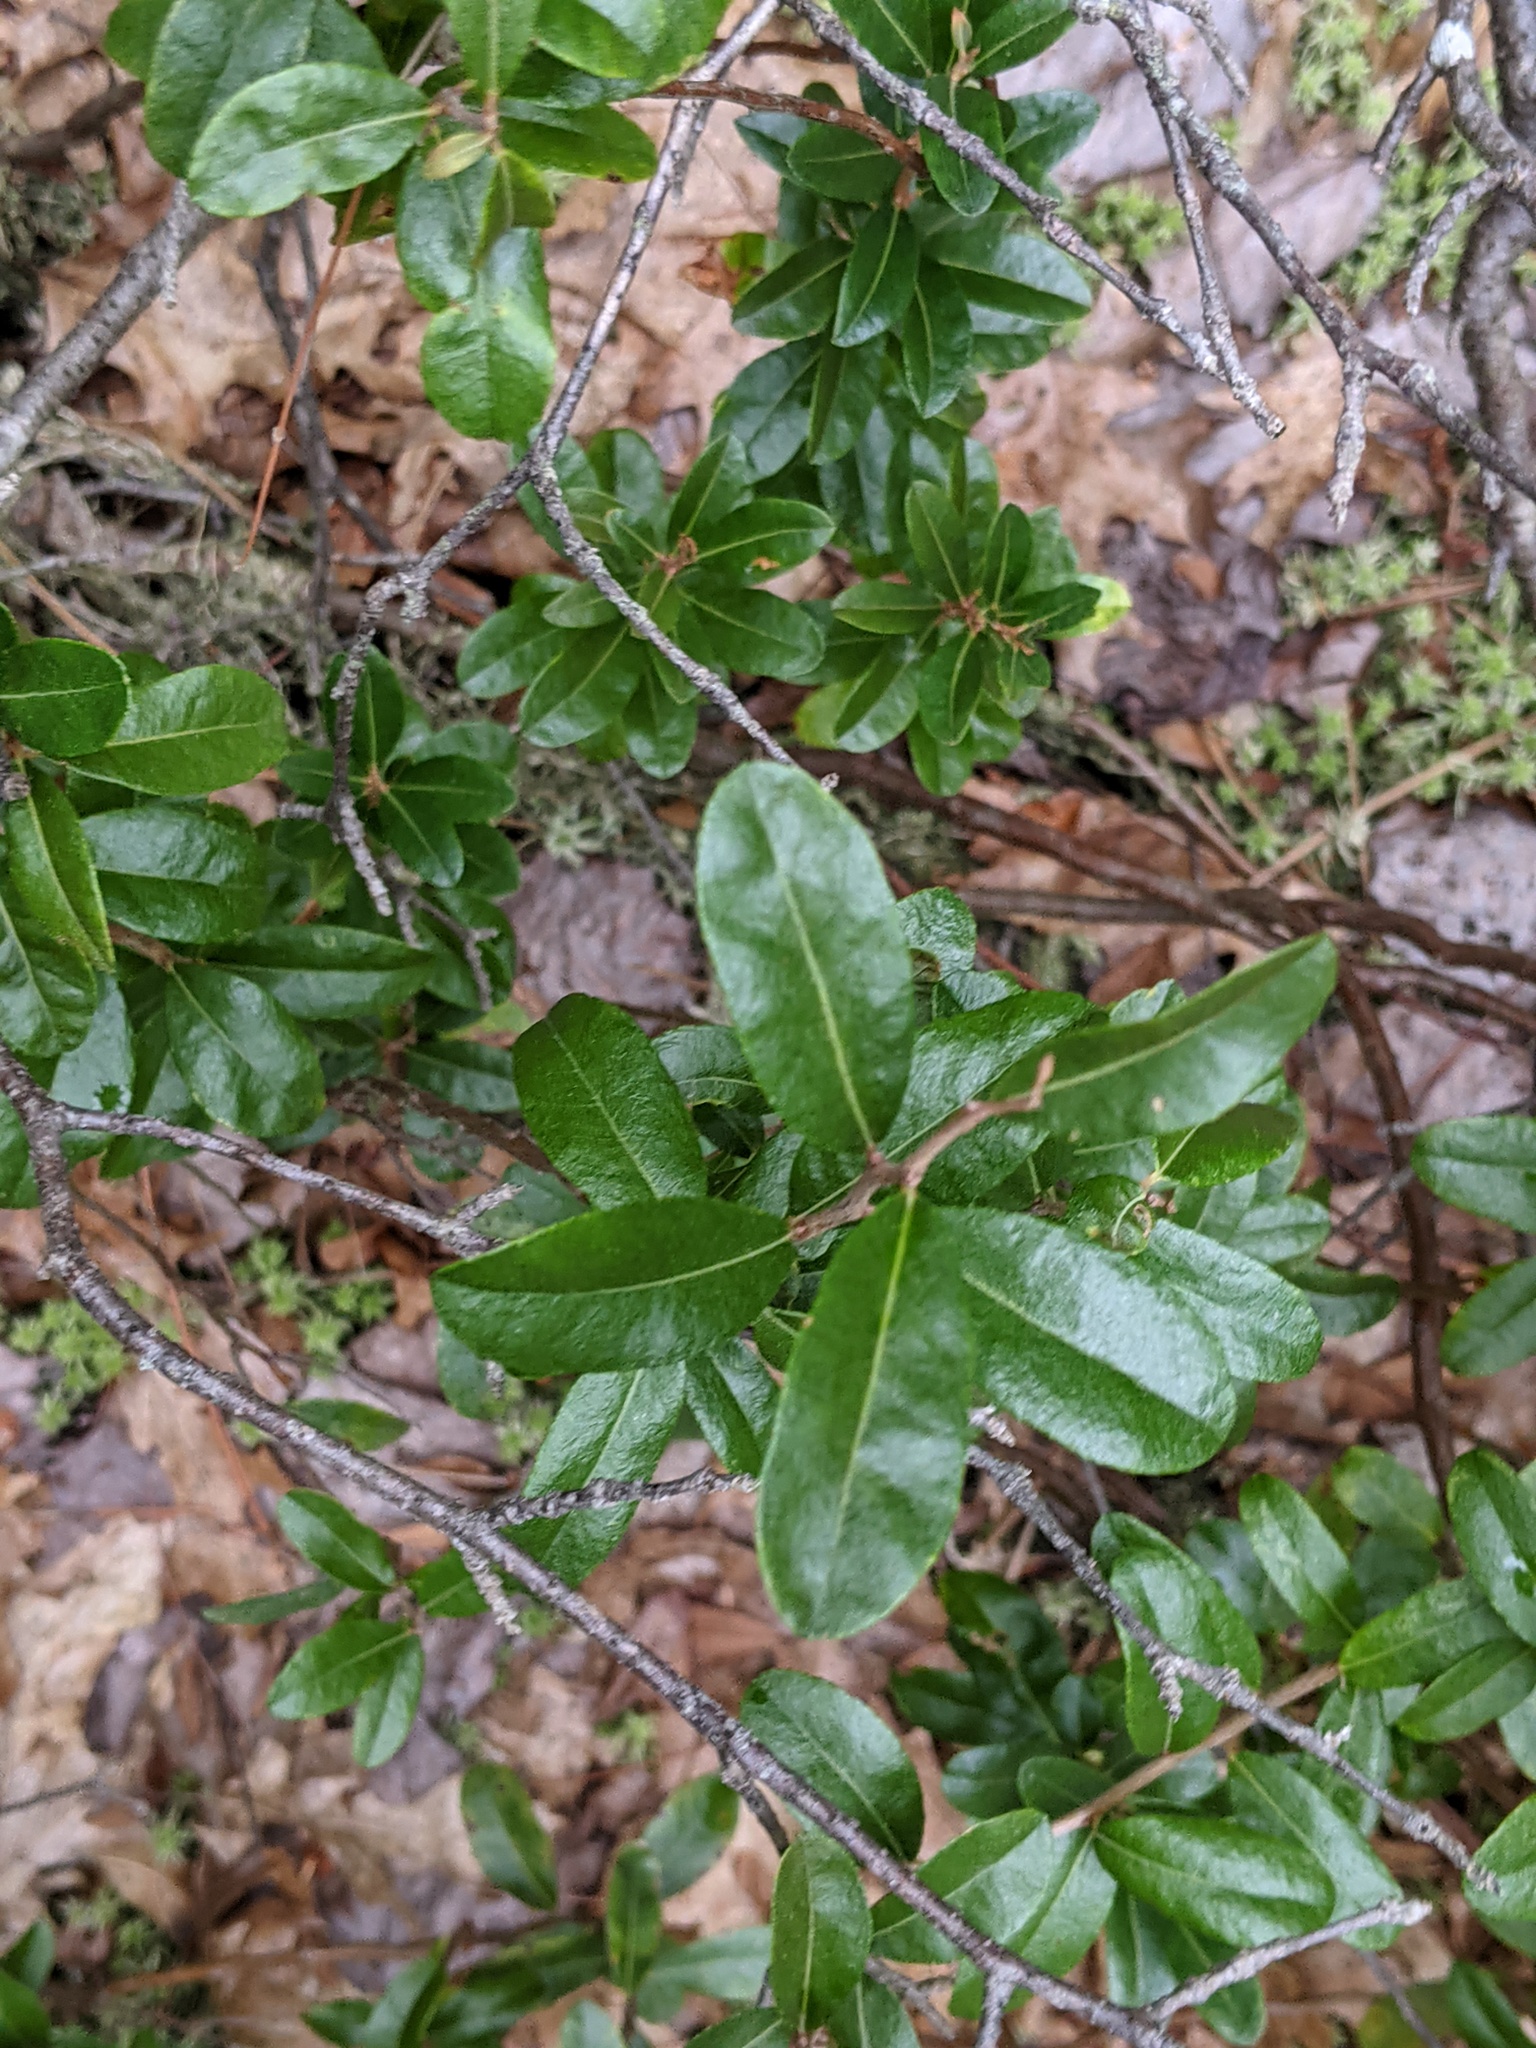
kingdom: Plantae
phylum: Tracheophyta
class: Magnoliopsida
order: Ericales
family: Ericaceae
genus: Chamaedaphne
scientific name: Chamaedaphne calyculata
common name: Leatherleaf
